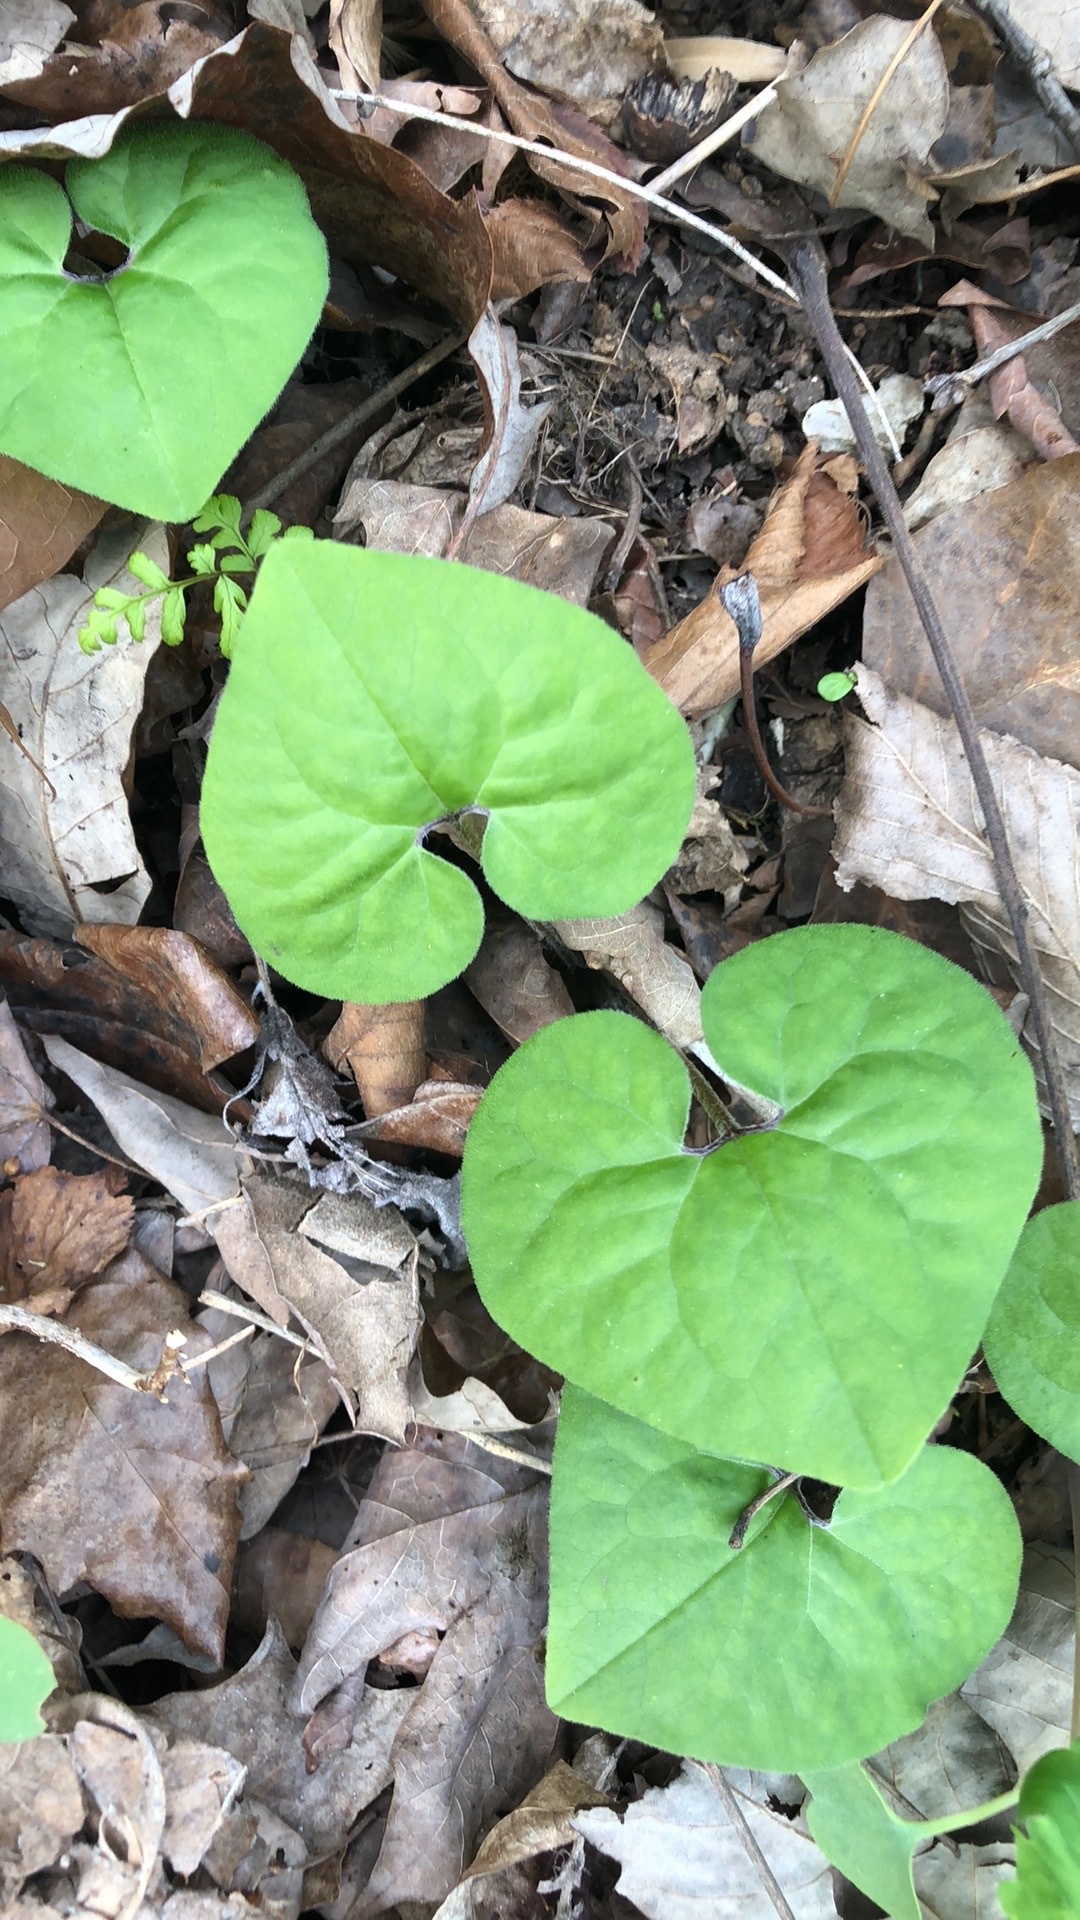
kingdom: Plantae
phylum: Tracheophyta
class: Magnoliopsida
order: Piperales
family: Aristolochiaceae
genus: Asarum
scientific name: Asarum canadense
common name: Wild ginger
